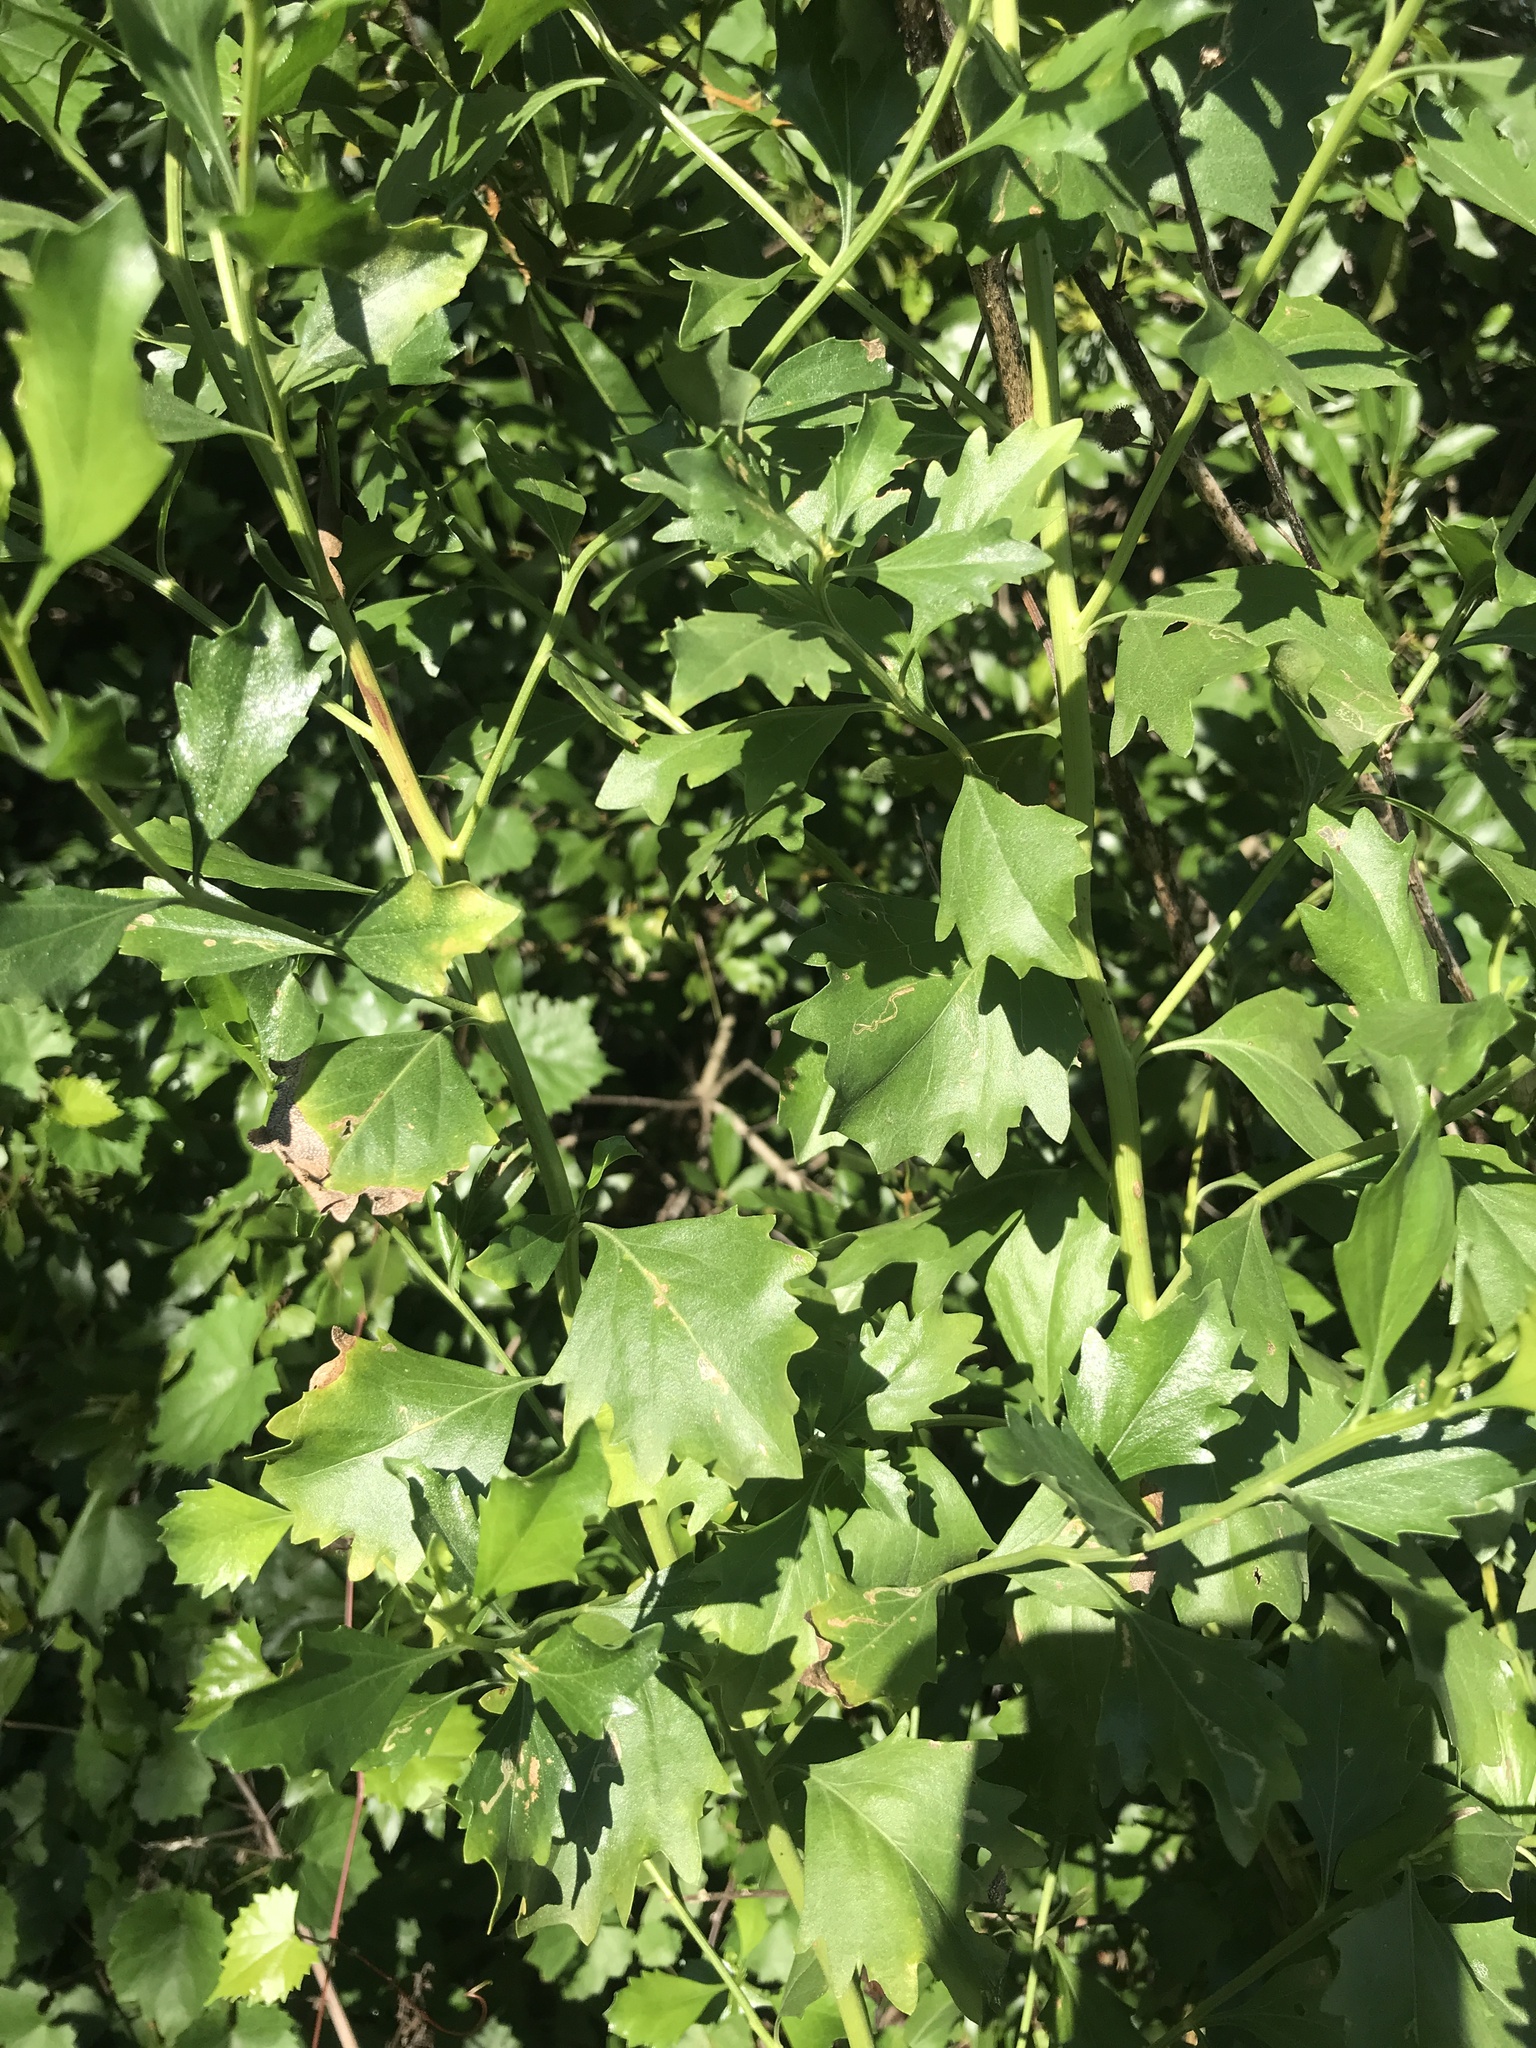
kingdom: Plantae
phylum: Tracheophyta
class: Magnoliopsida
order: Asterales
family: Asteraceae
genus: Baccharis
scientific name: Baccharis halimifolia
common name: Eastern baccharis
